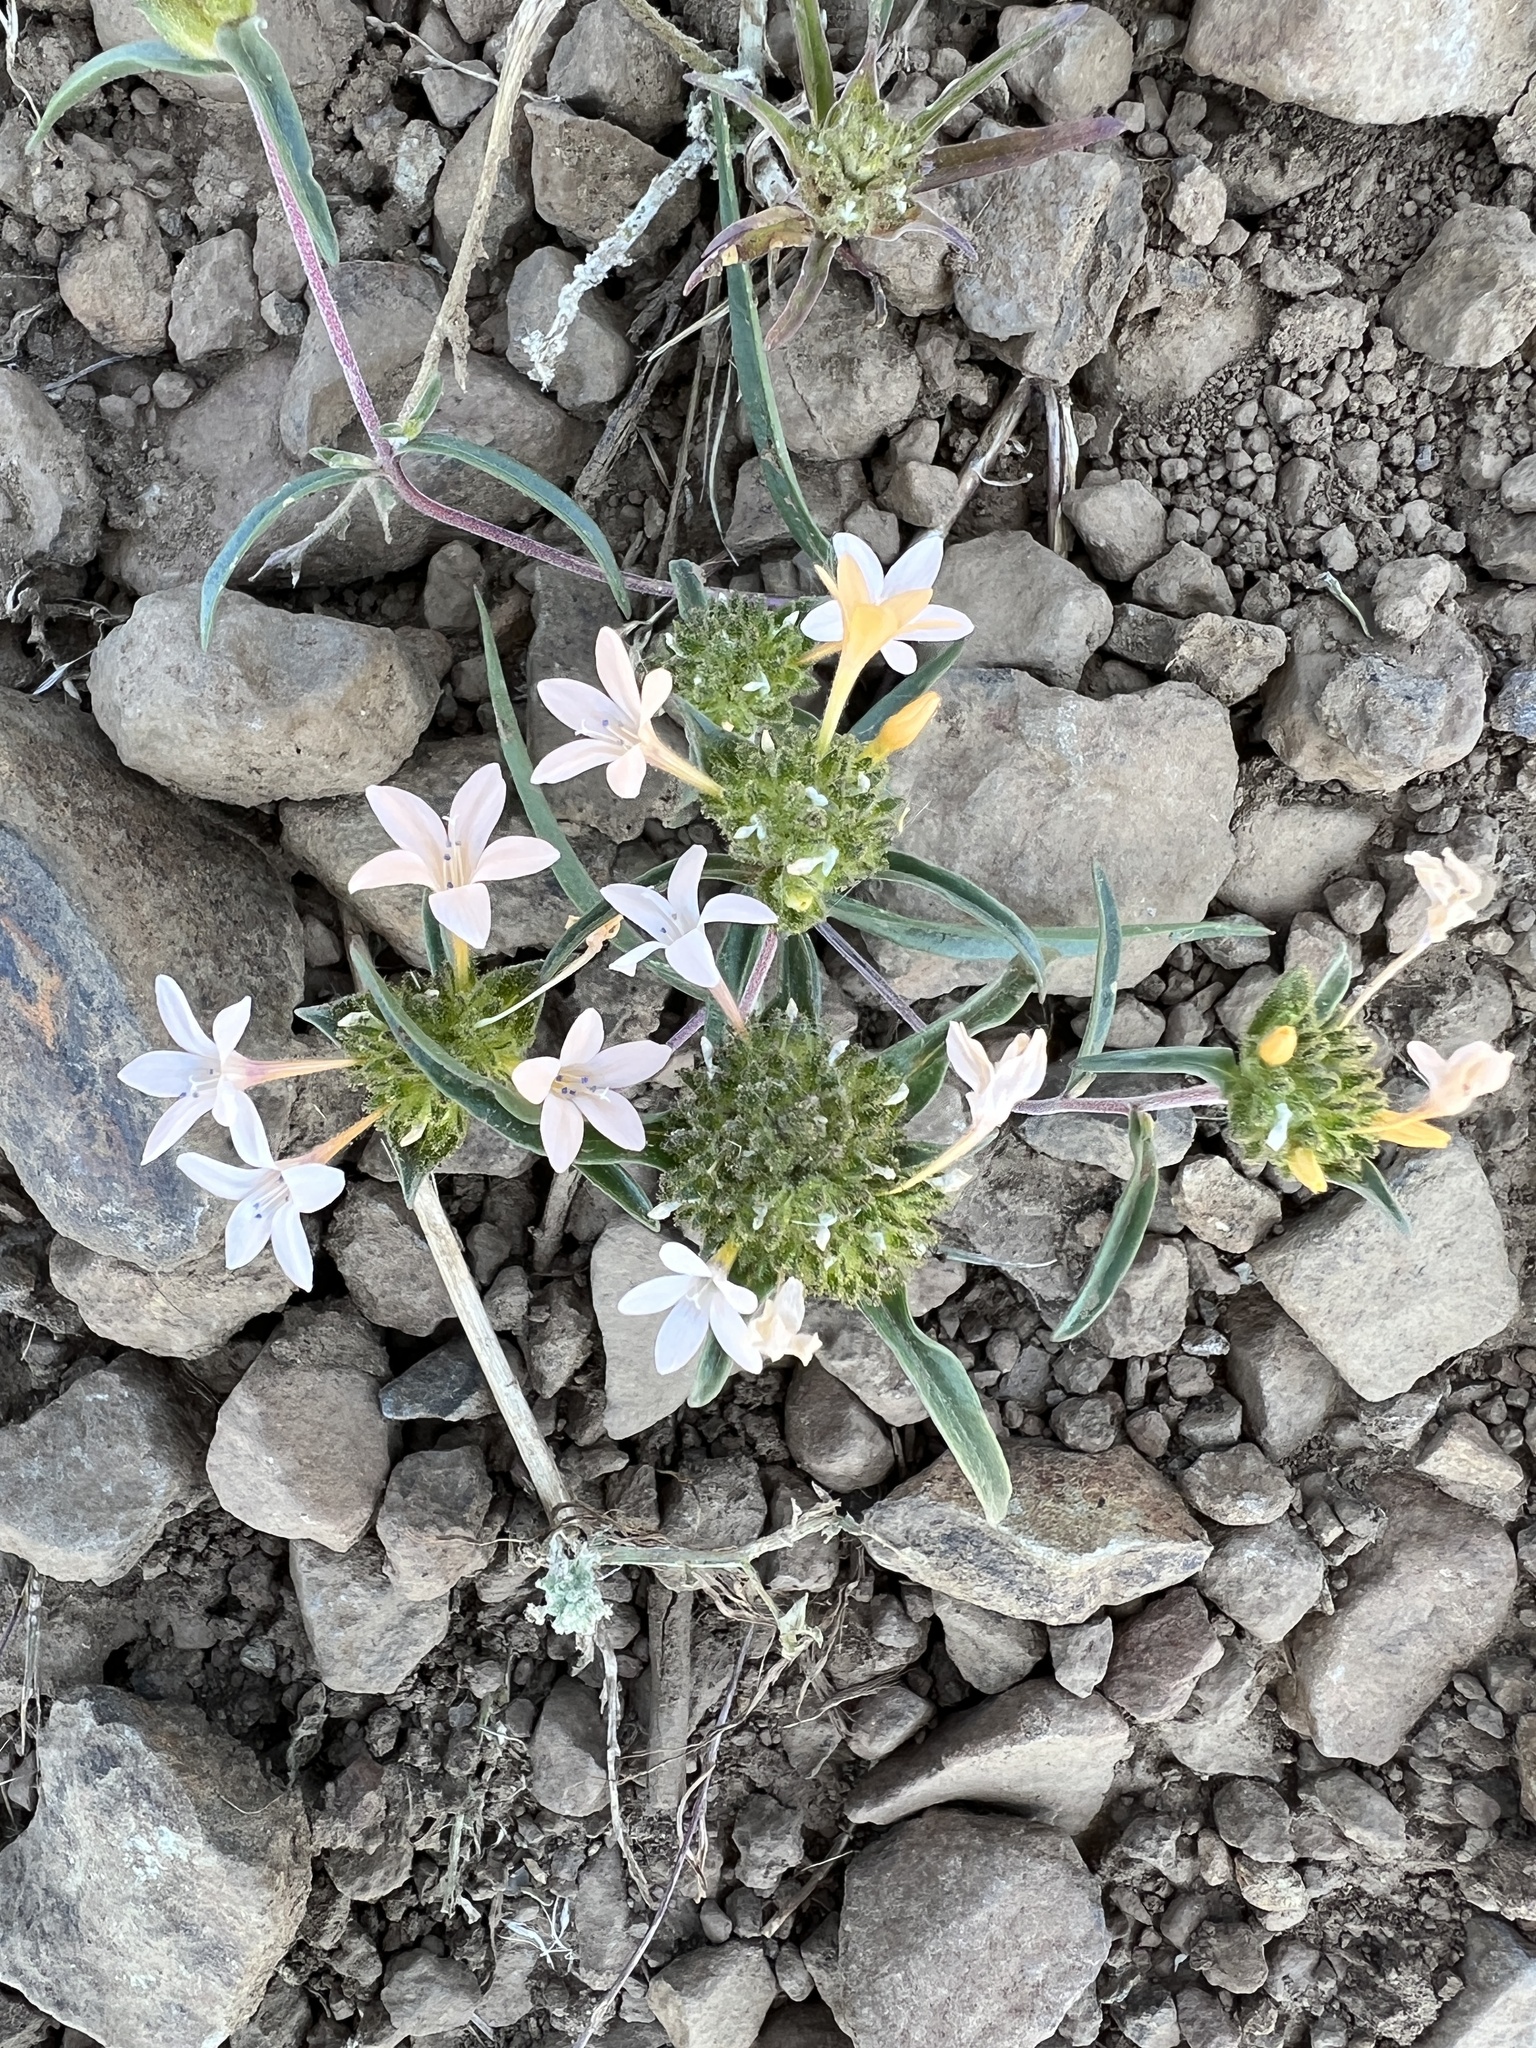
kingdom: Plantae
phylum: Tracheophyta
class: Magnoliopsida
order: Ericales
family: Polemoniaceae
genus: Collomia
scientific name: Collomia grandiflora
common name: California strawflower
